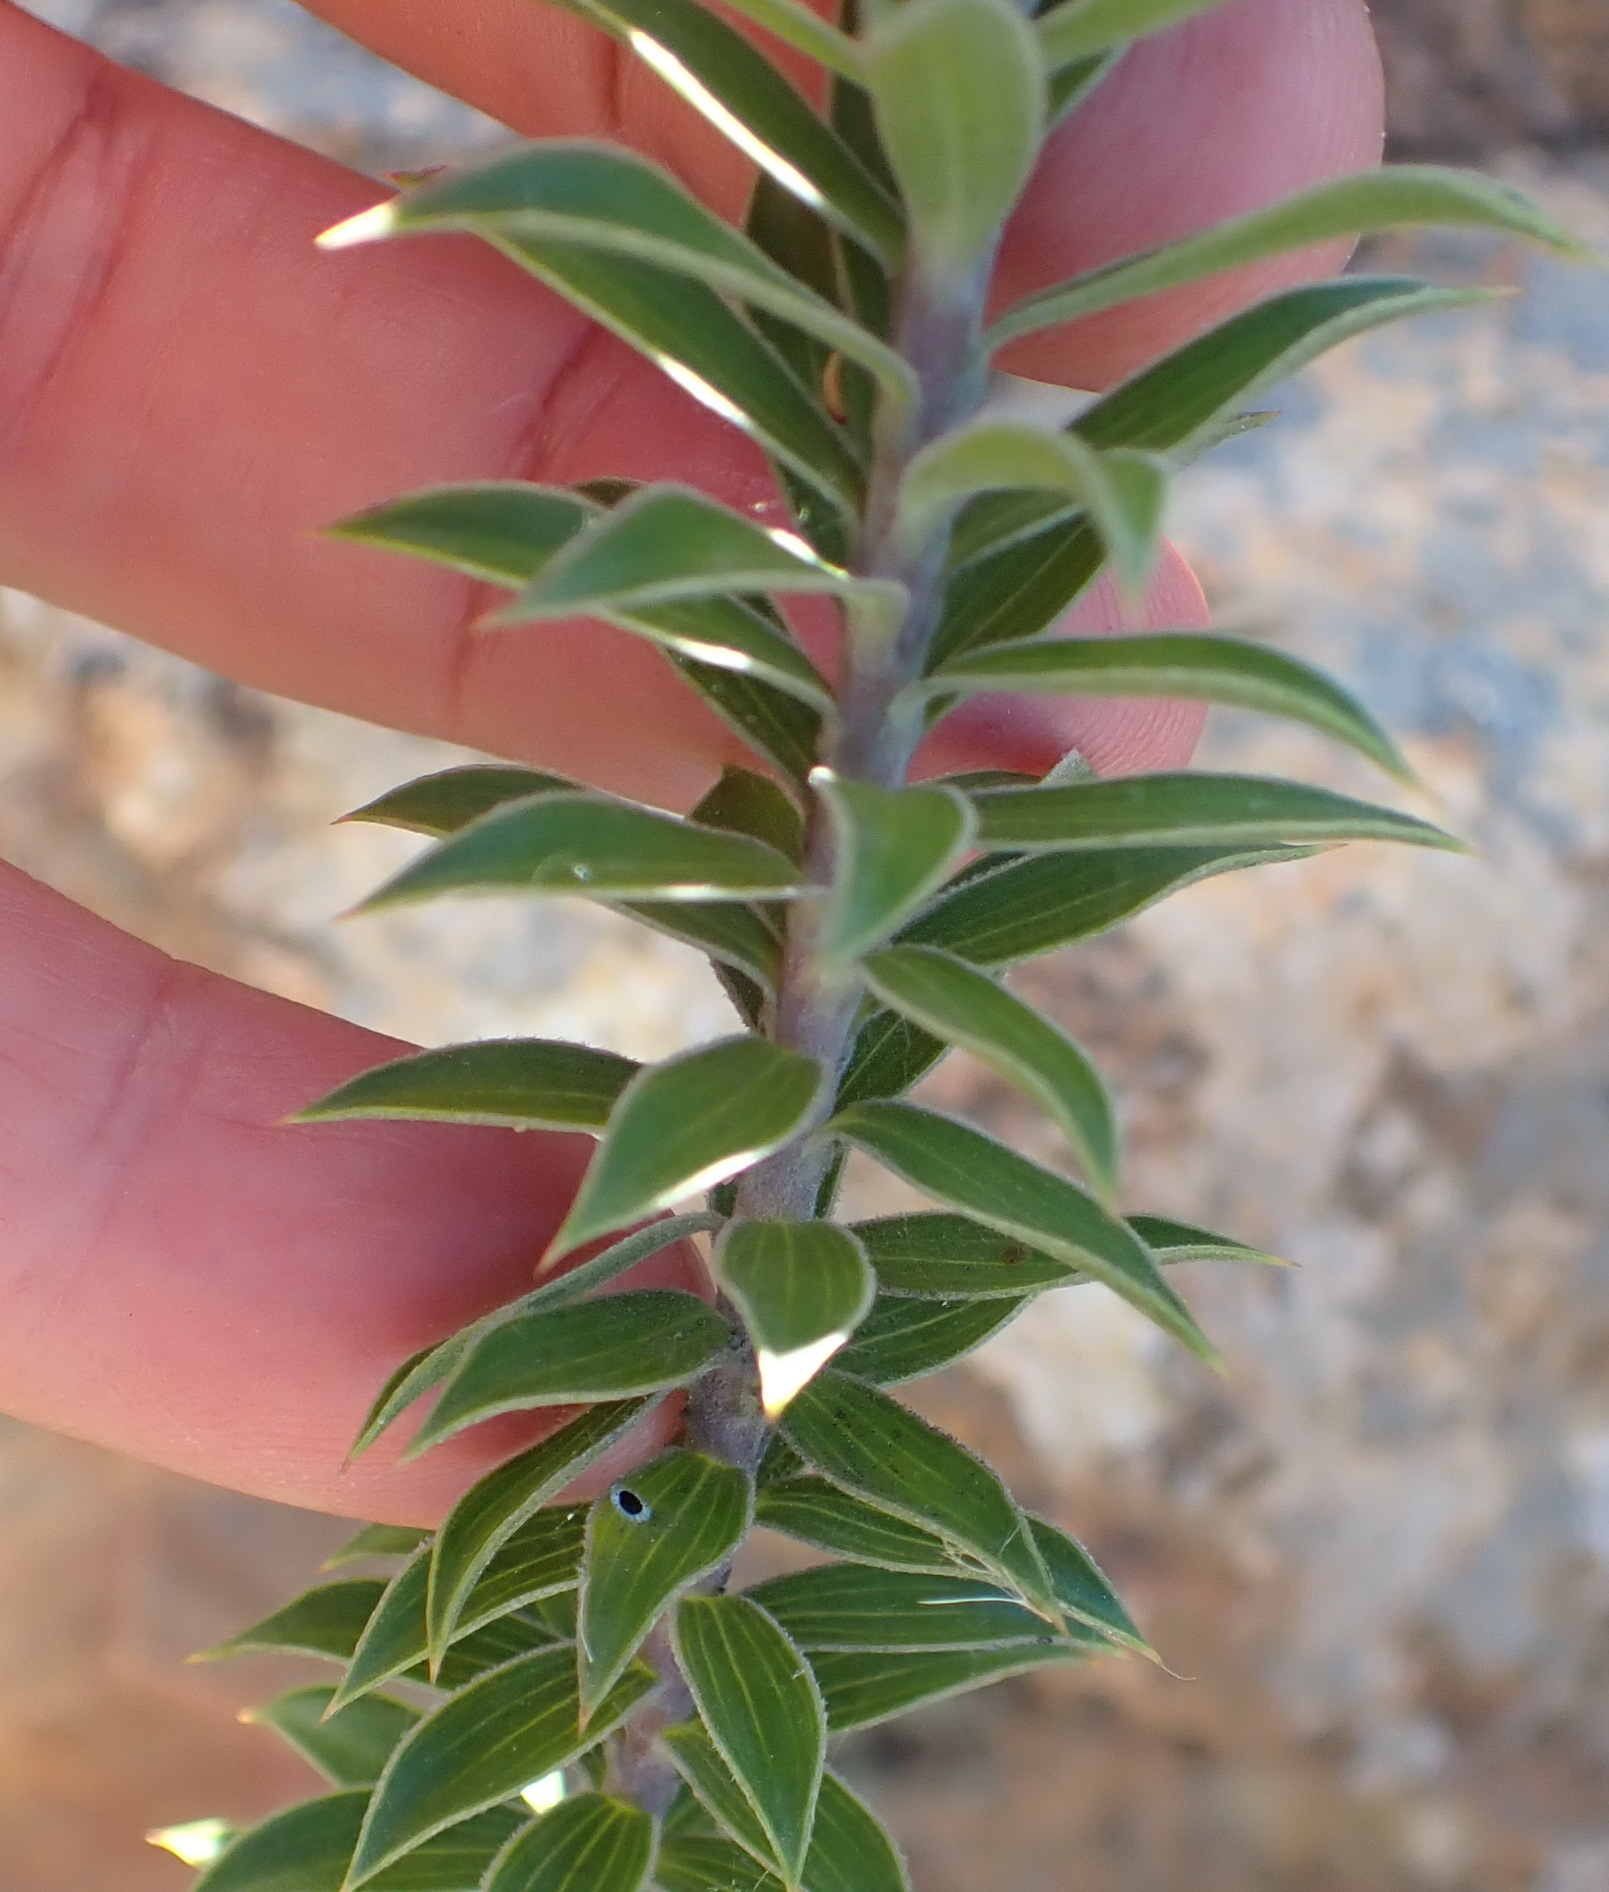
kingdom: Plantae
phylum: Tracheophyta
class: Magnoliopsida
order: Asterales
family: Asteraceae
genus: Oedera
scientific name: Oedera speciosa
